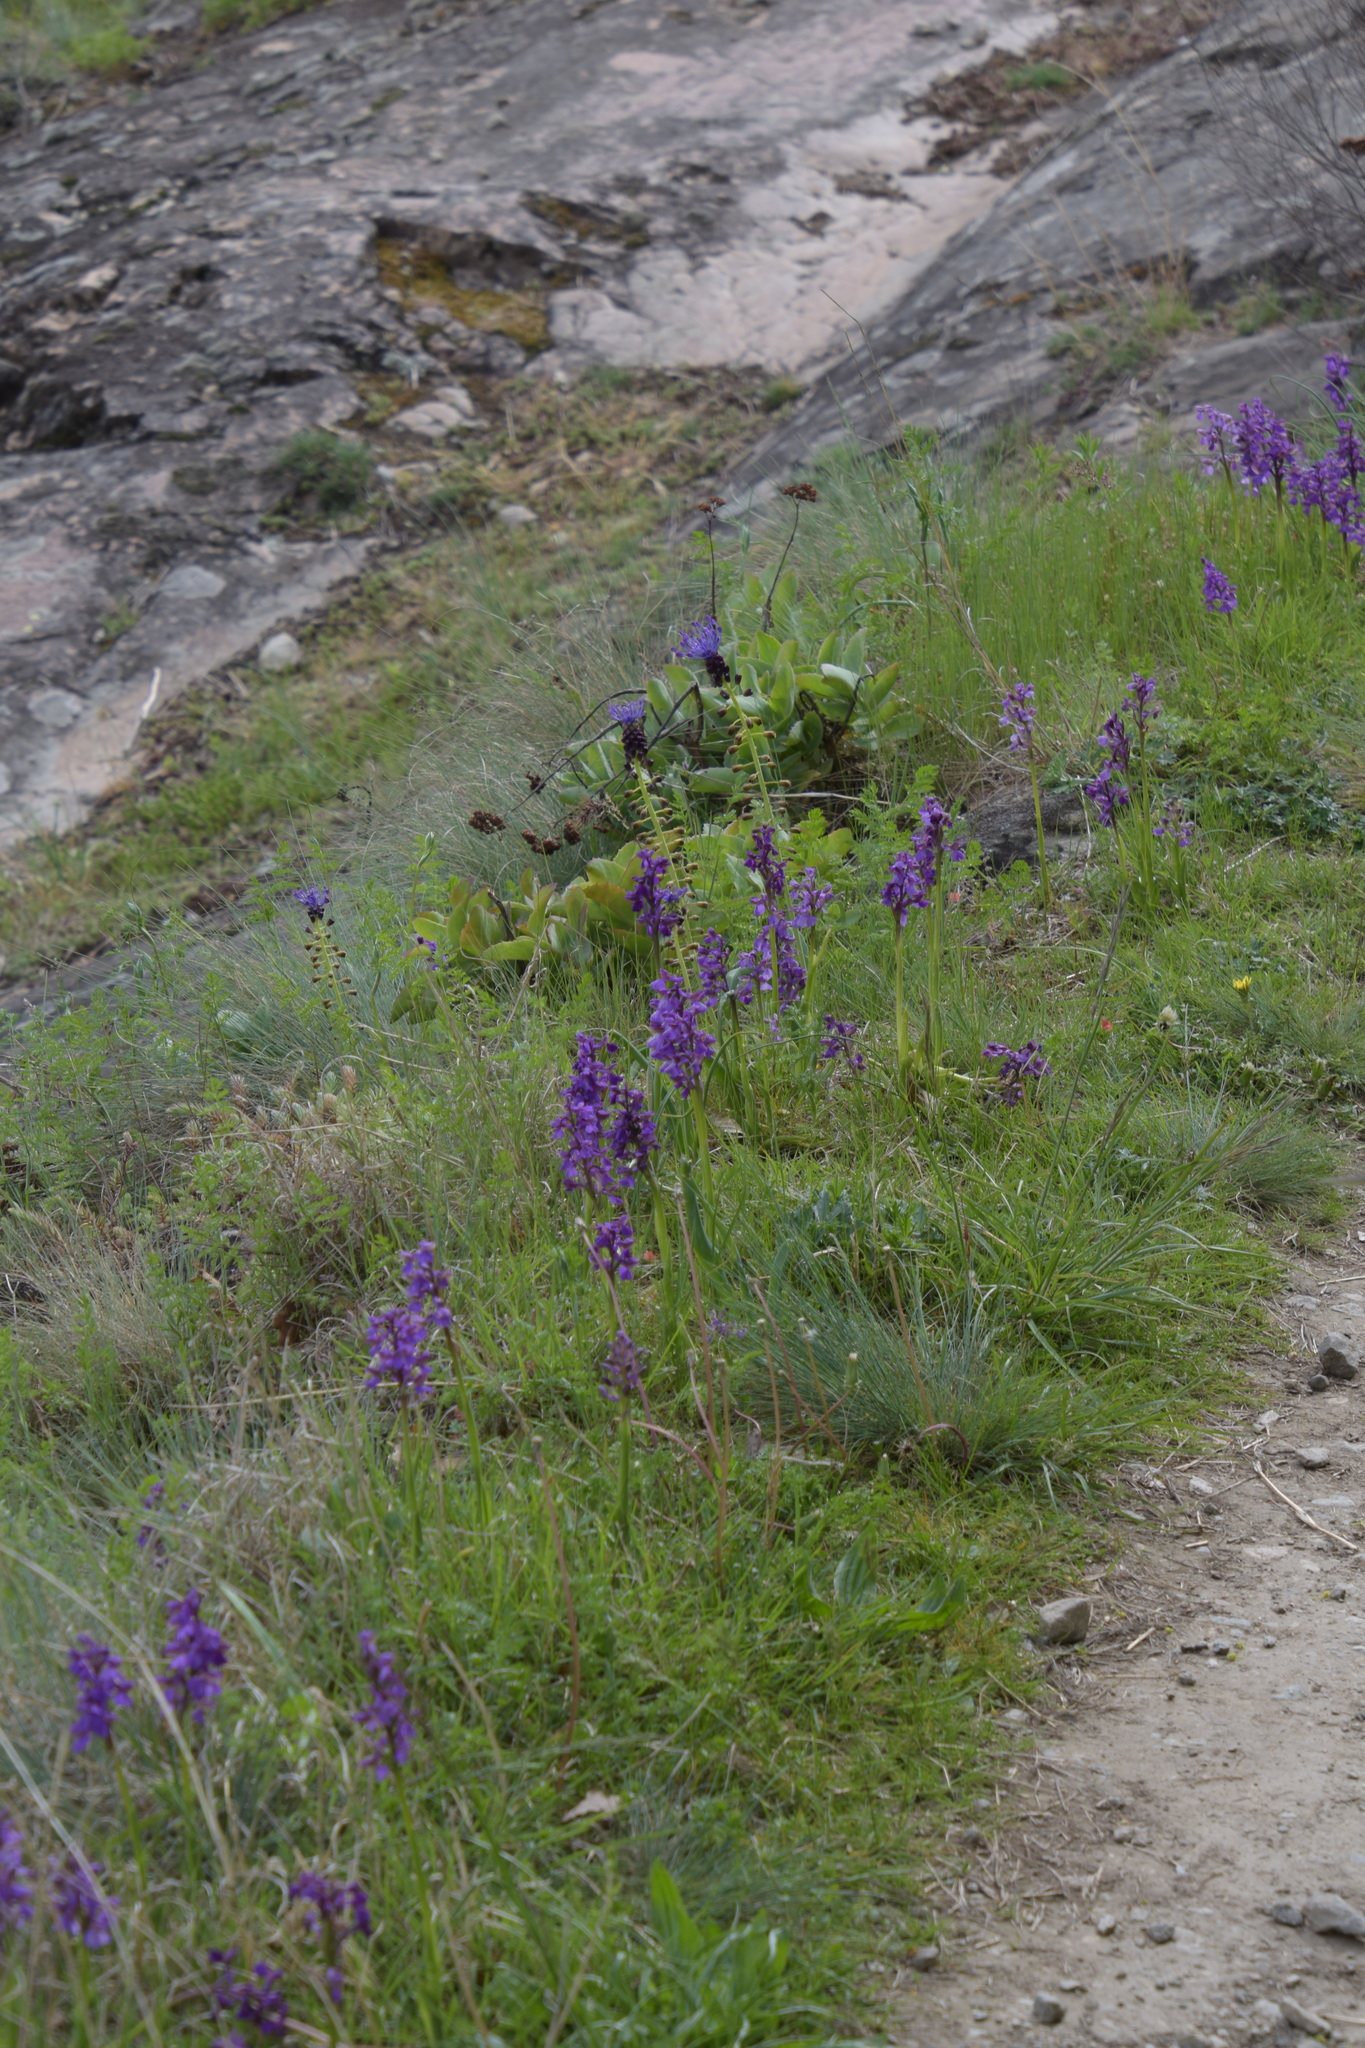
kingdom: Plantae
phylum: Tracheophyta
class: Liliopsida
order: Asparagales
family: Orchidaceae
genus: Anacamptis
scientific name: Anacamptis morio
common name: Green-winged orchid
